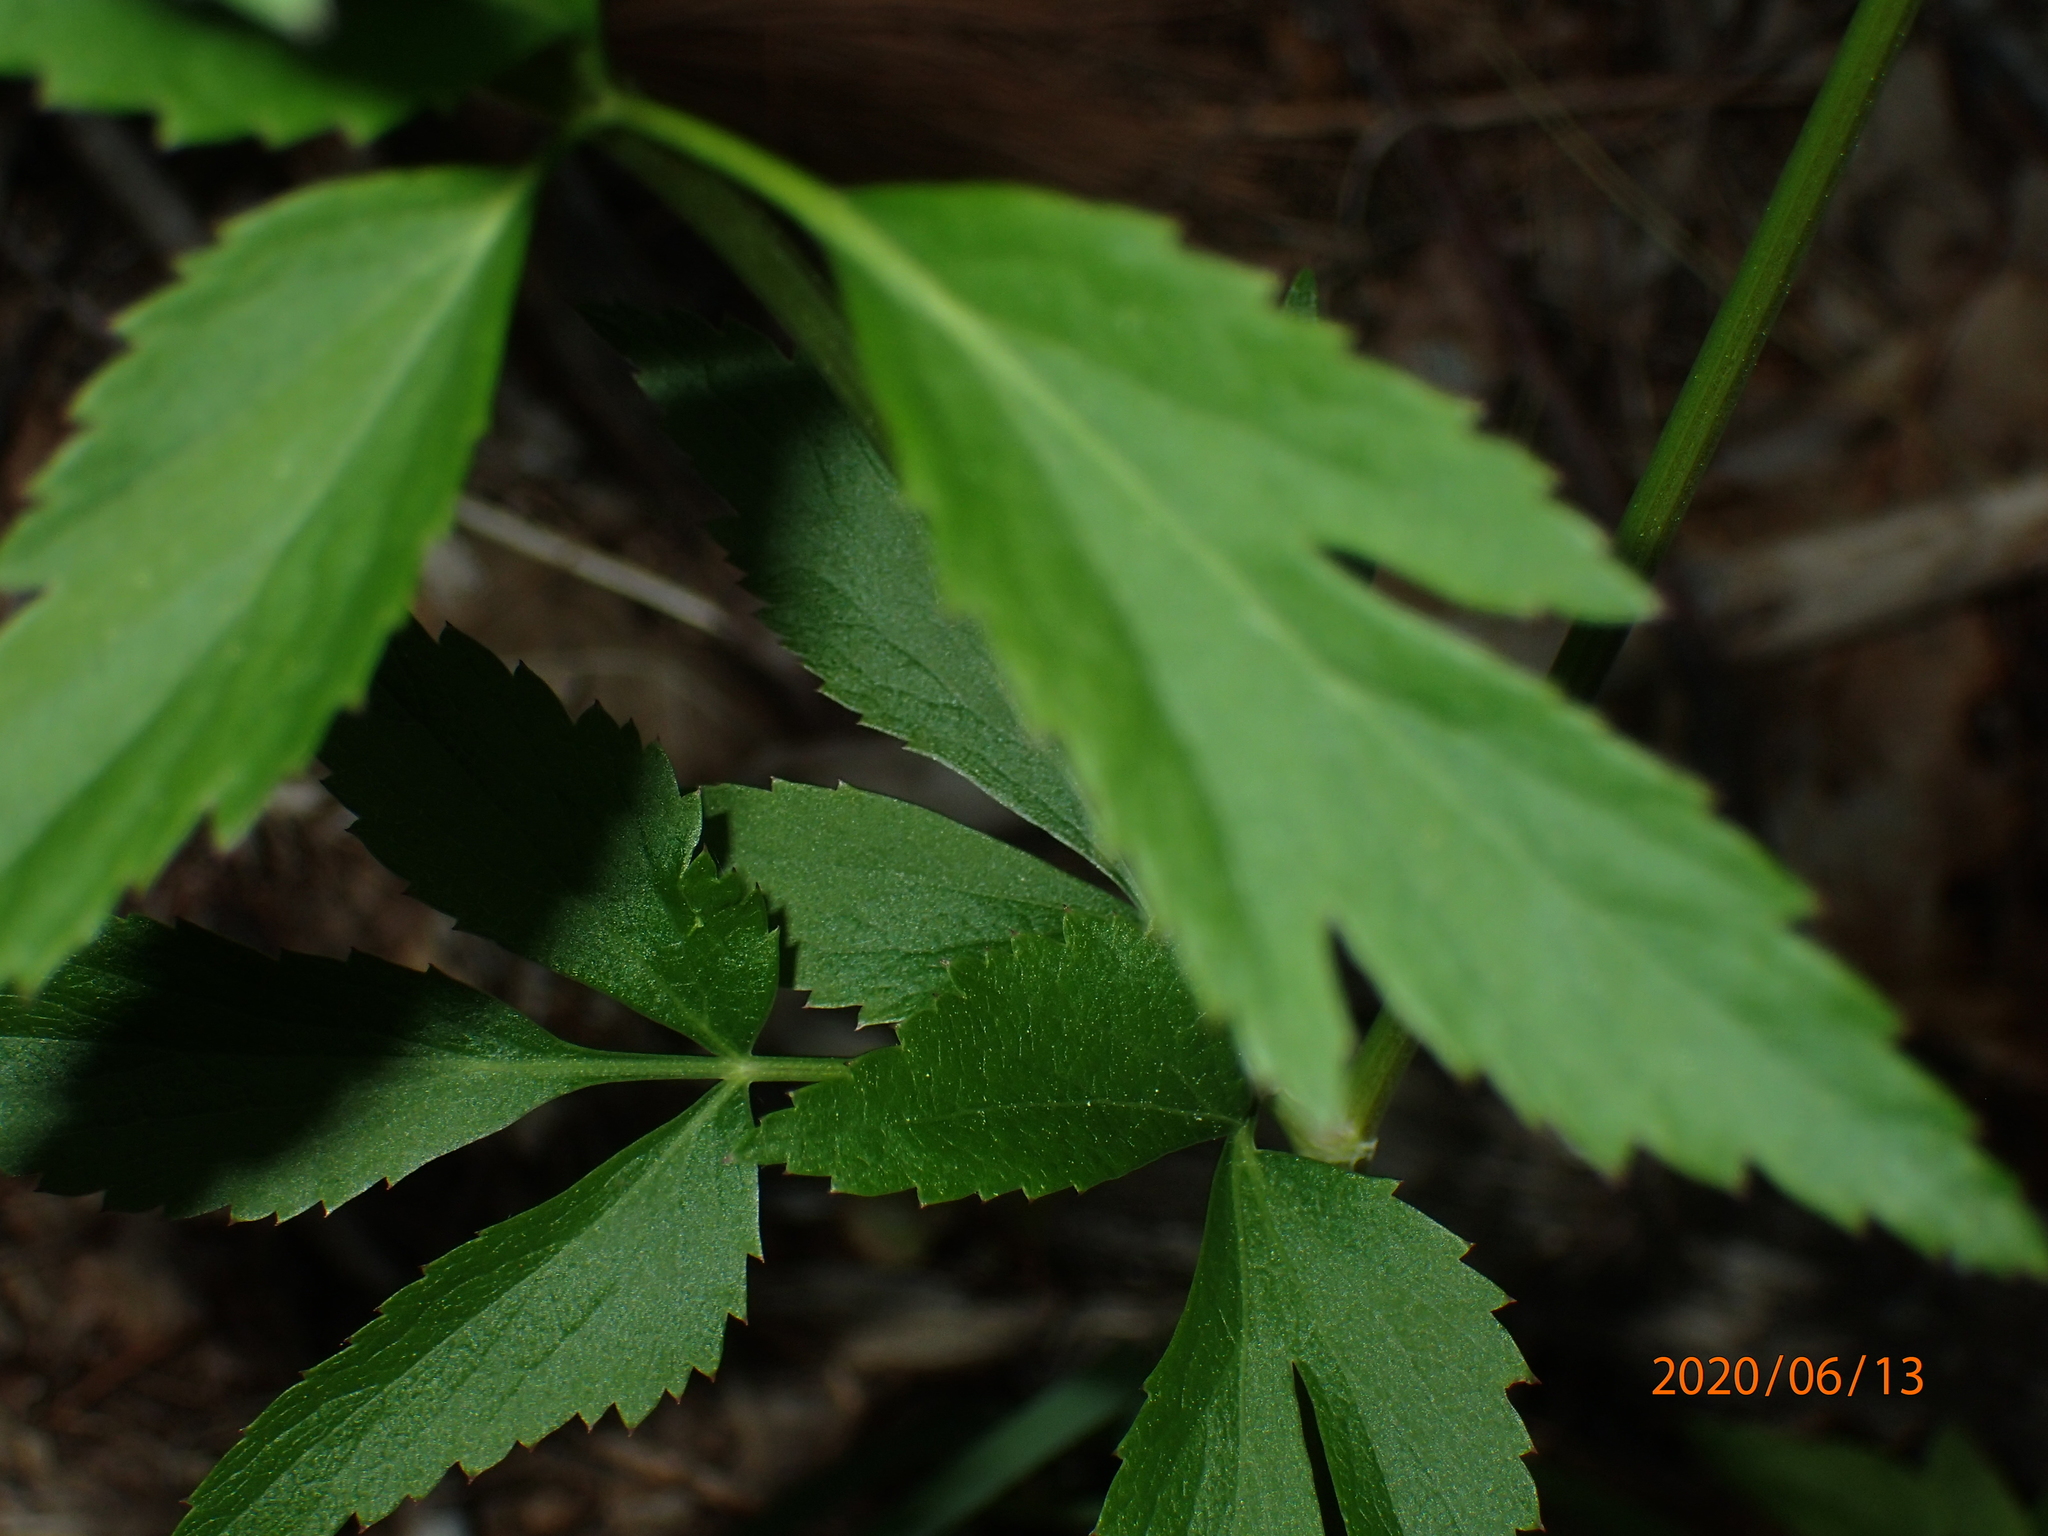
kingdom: Plantae
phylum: Tracheophyta
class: Magnoliopsida
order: Apiales
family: Apiaceae
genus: Zizia
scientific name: Zizia aurea
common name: Golden alexanders
